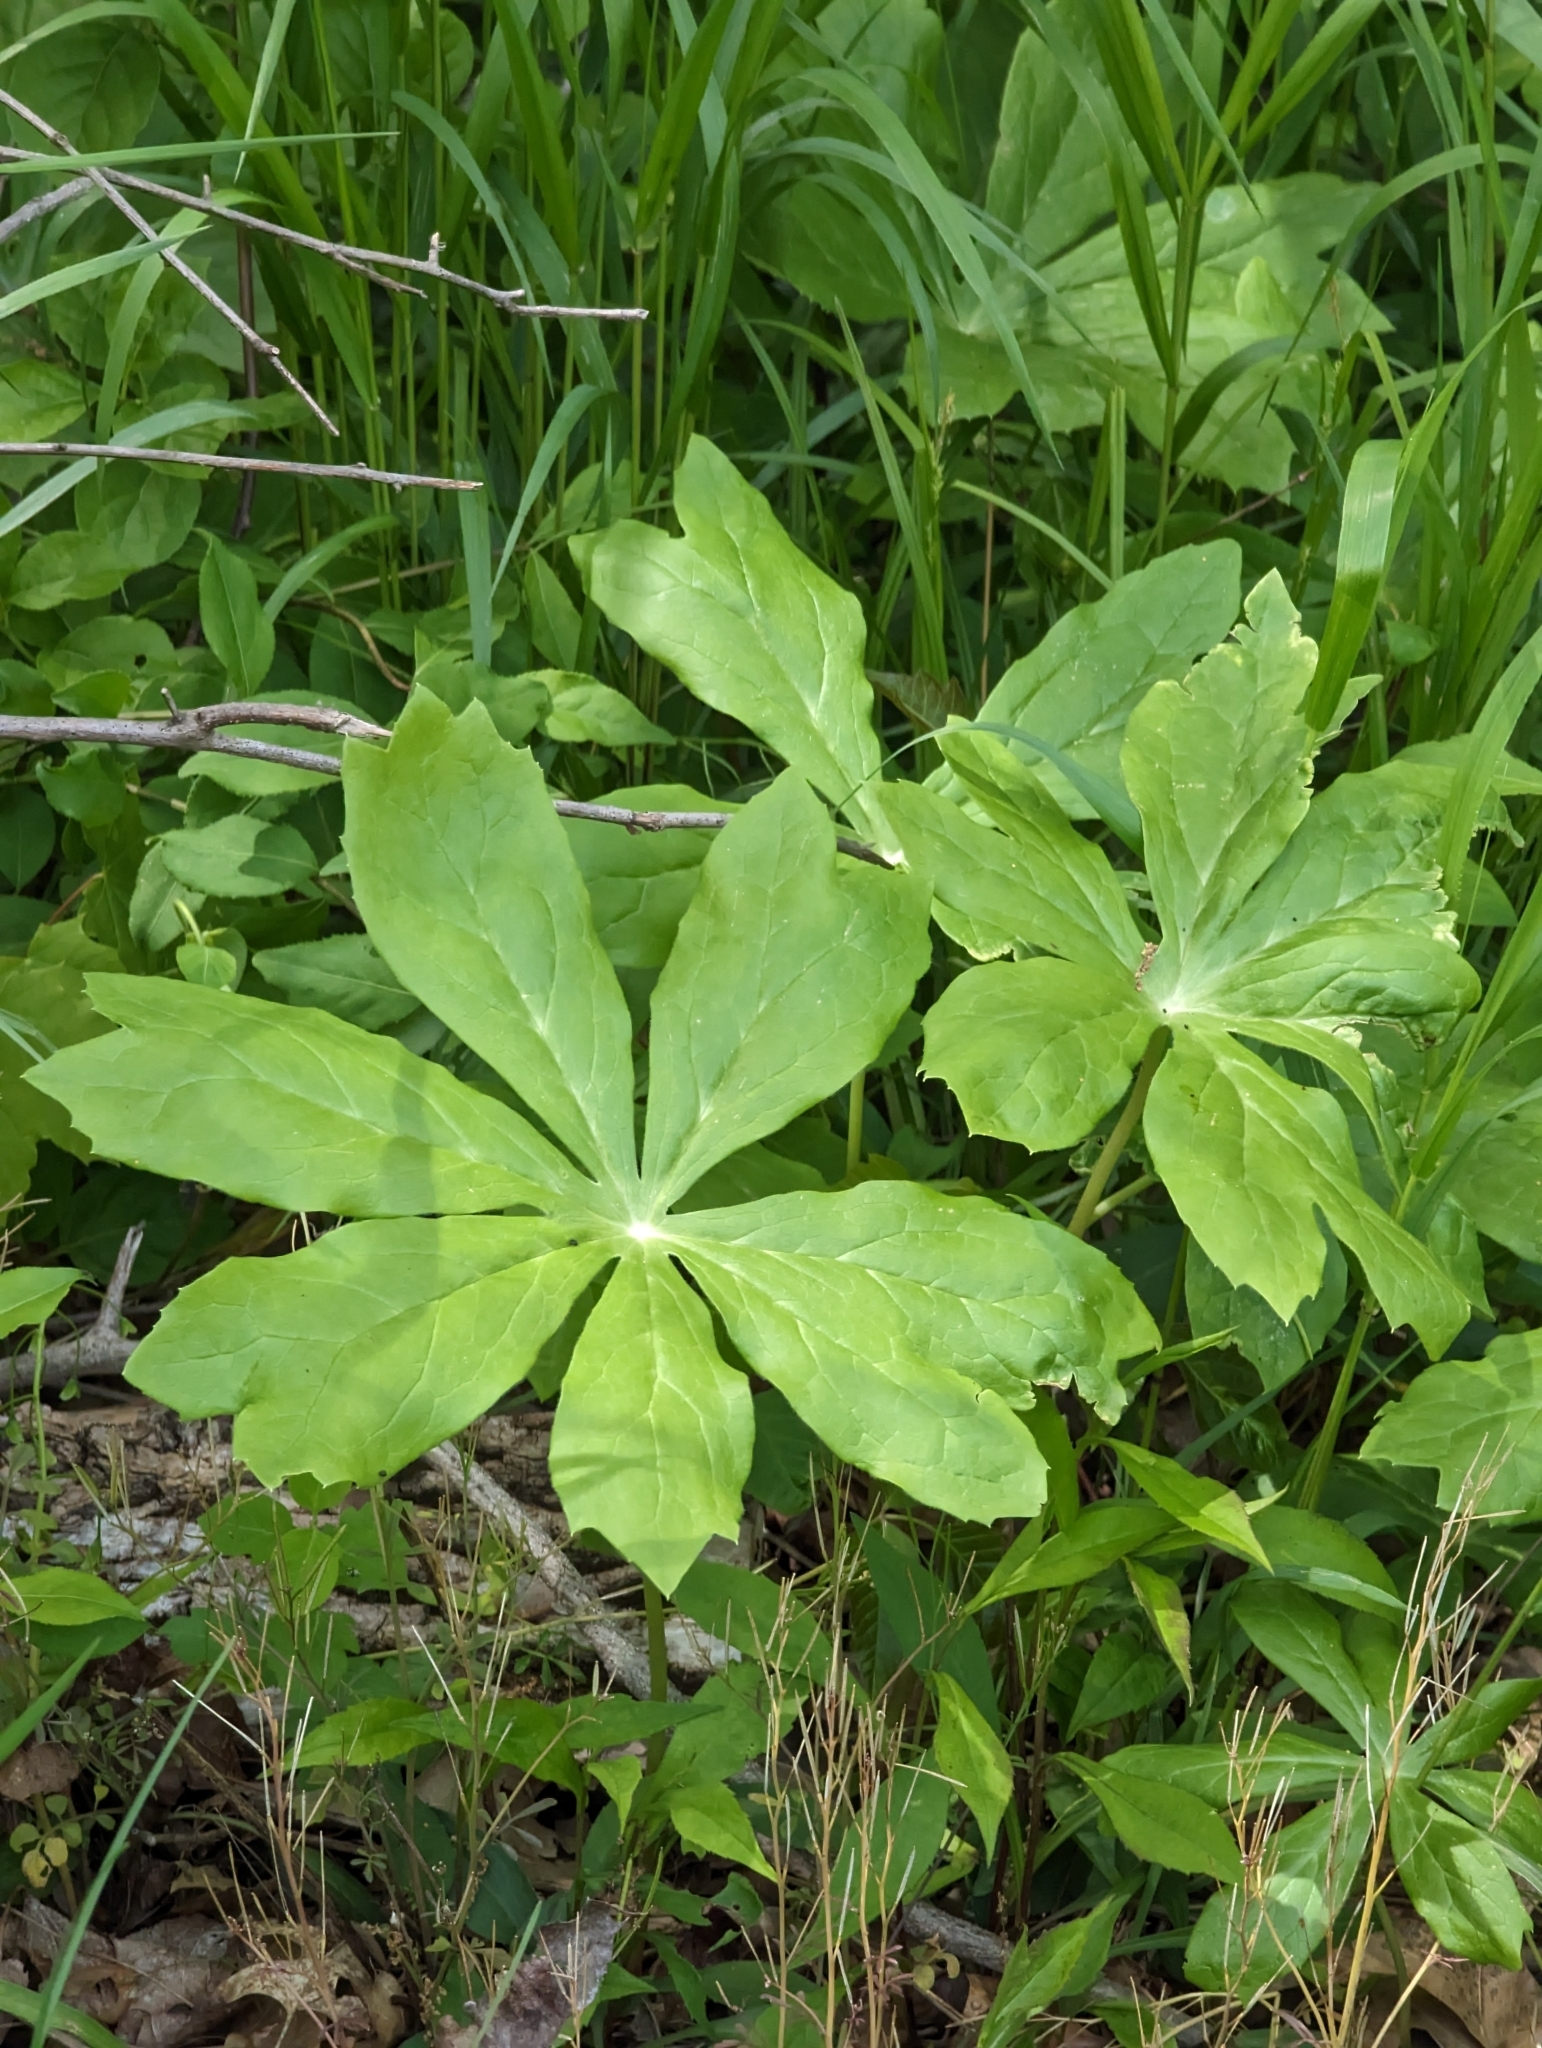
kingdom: Plantae
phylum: Tracheophyta
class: Magnoliopsida
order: Ranunculales
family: Berberidaceae
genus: Podophyllum
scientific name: Podophyllum peltatum
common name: Wild mandrake
